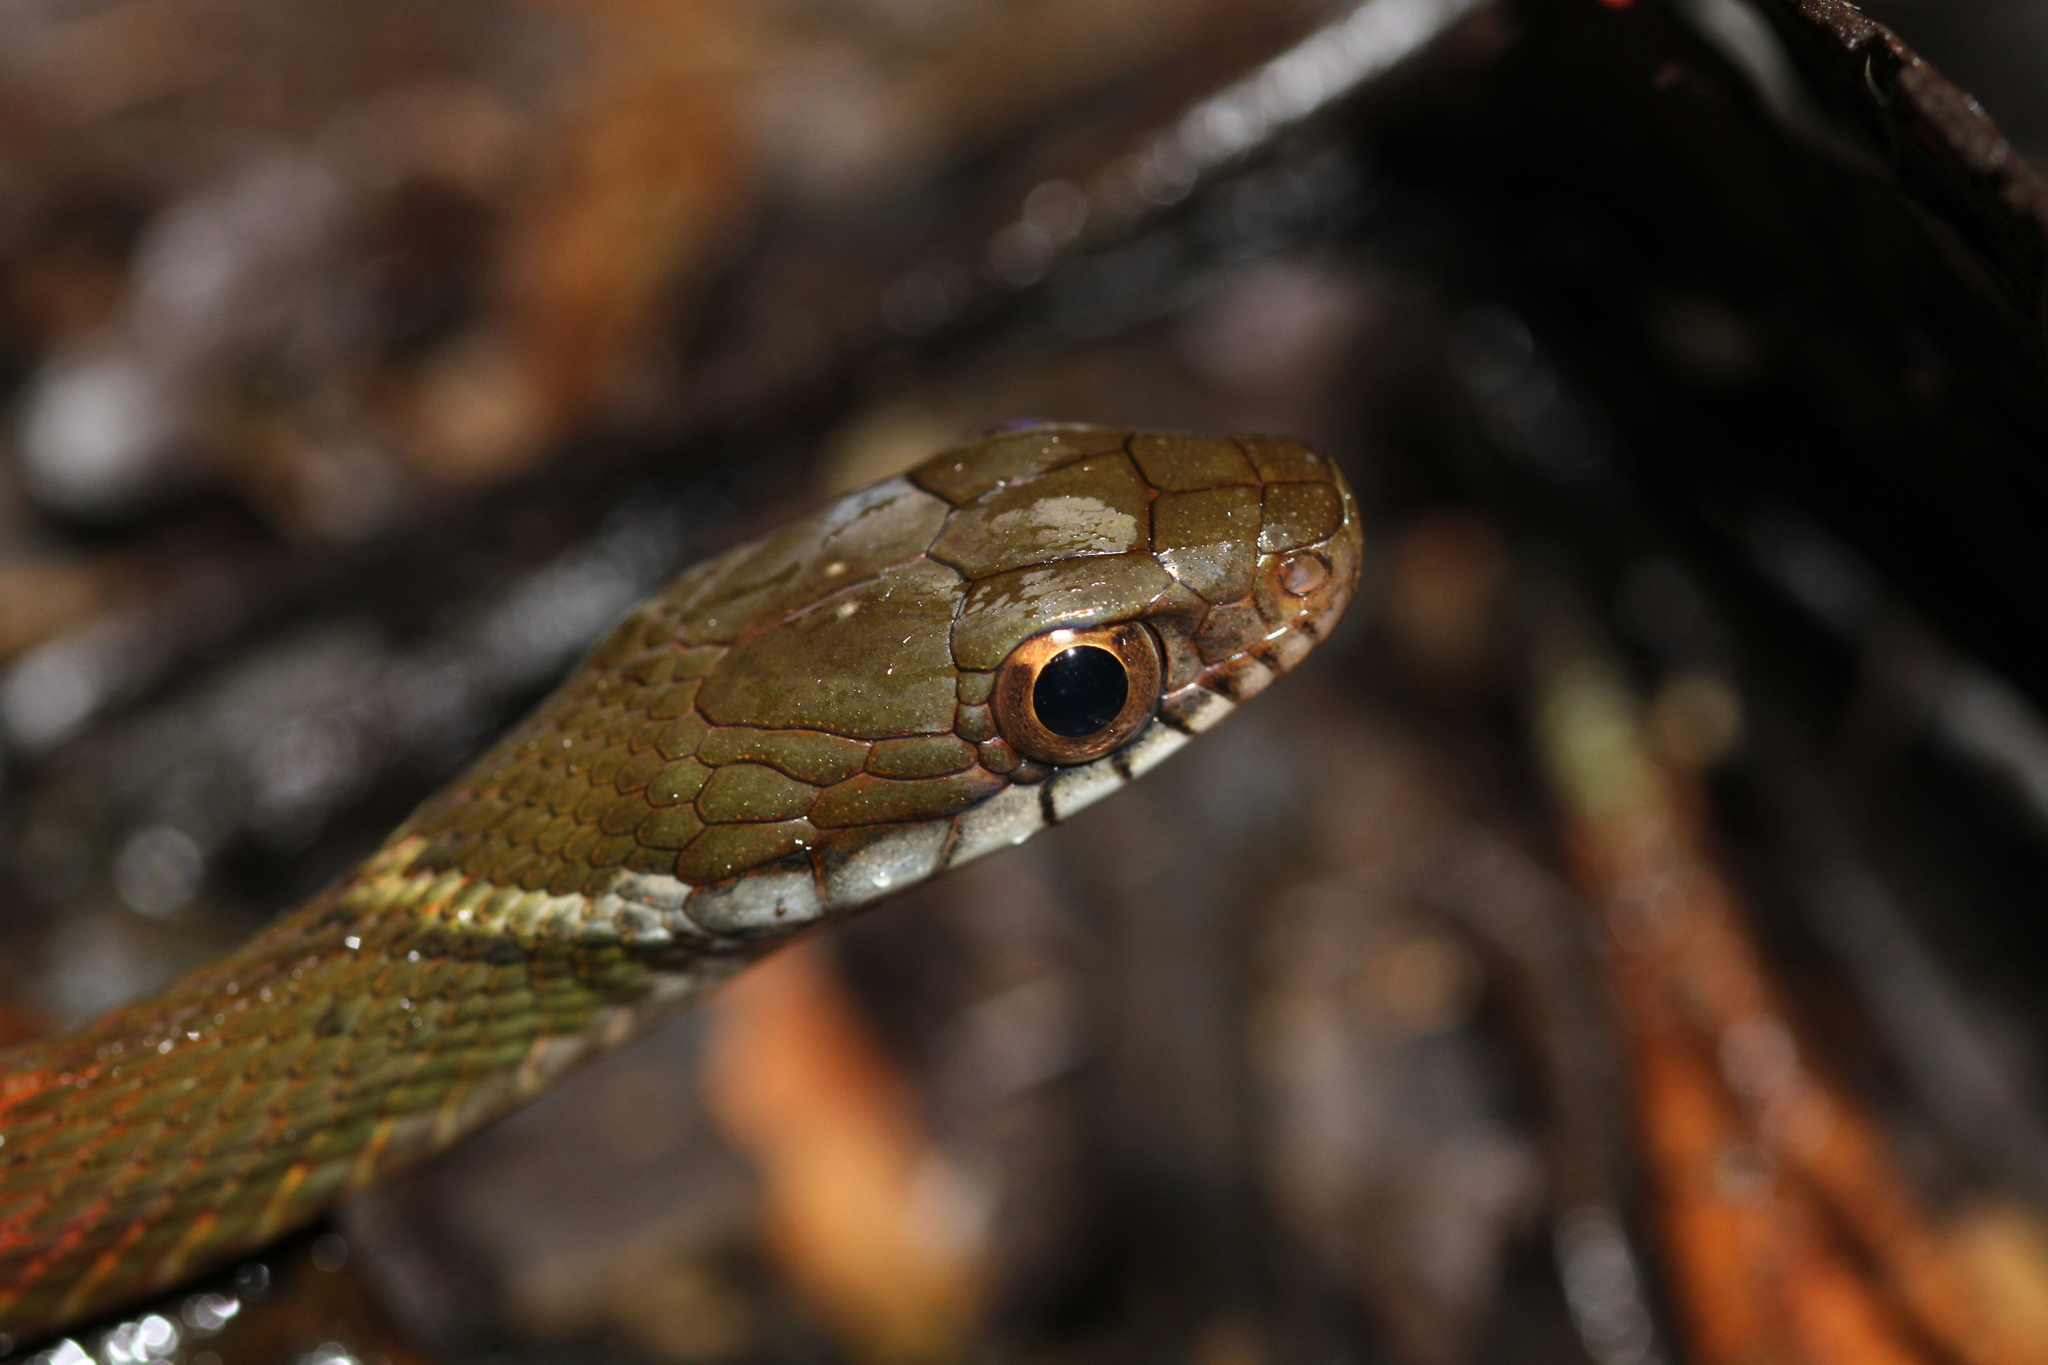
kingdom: Animalia
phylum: Chordata
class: Squamata
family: Colubridae
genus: Rhabdophis
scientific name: Rhabdophis chrysargos
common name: Specklebelly keelback
